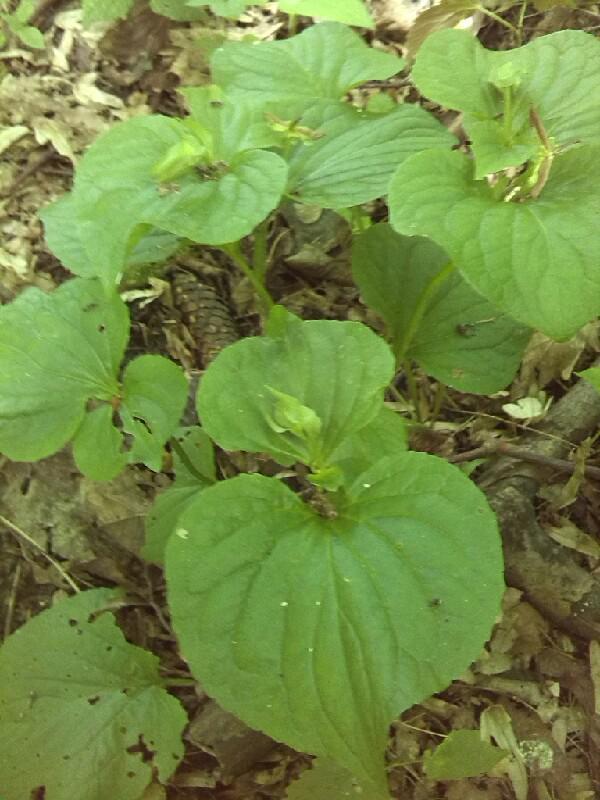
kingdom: Plantae
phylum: Tracheophyta
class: Magnoliopsida
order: Malpighiales
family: Violaceae
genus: Viola
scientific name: Viola mirabilis
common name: Wonder violet
